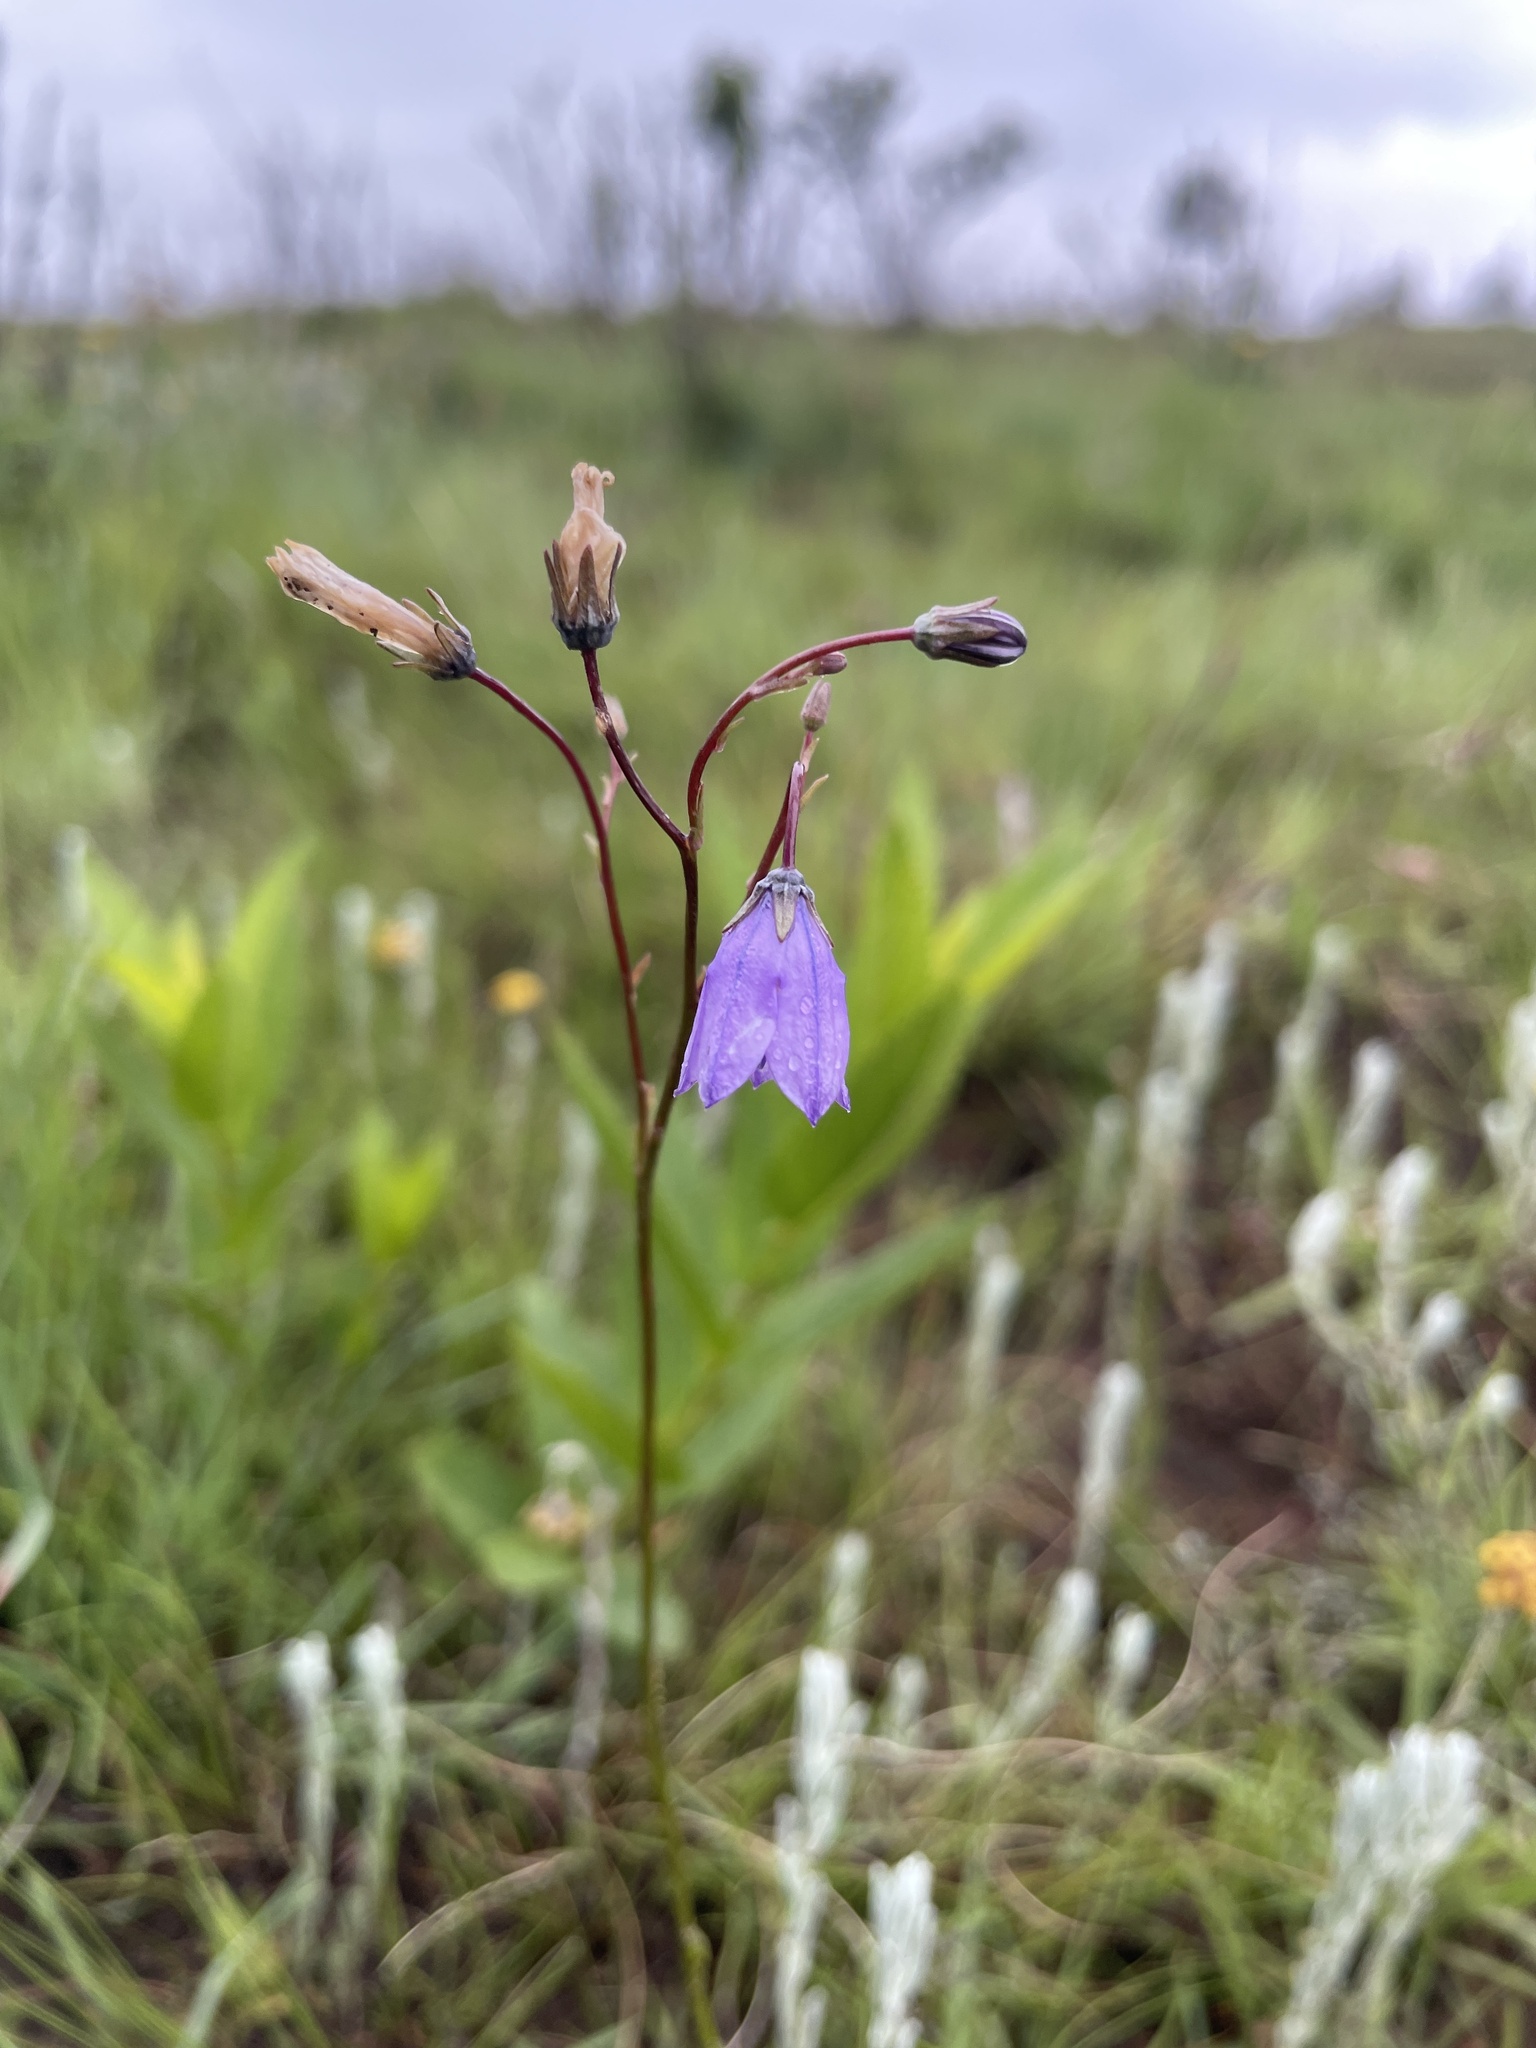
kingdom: Plantae
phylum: Tracheophyta
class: Magnoliopsida
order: Asterales
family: Campanulaceae
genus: Wahlenbergia
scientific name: Wahlenbergia undulata
